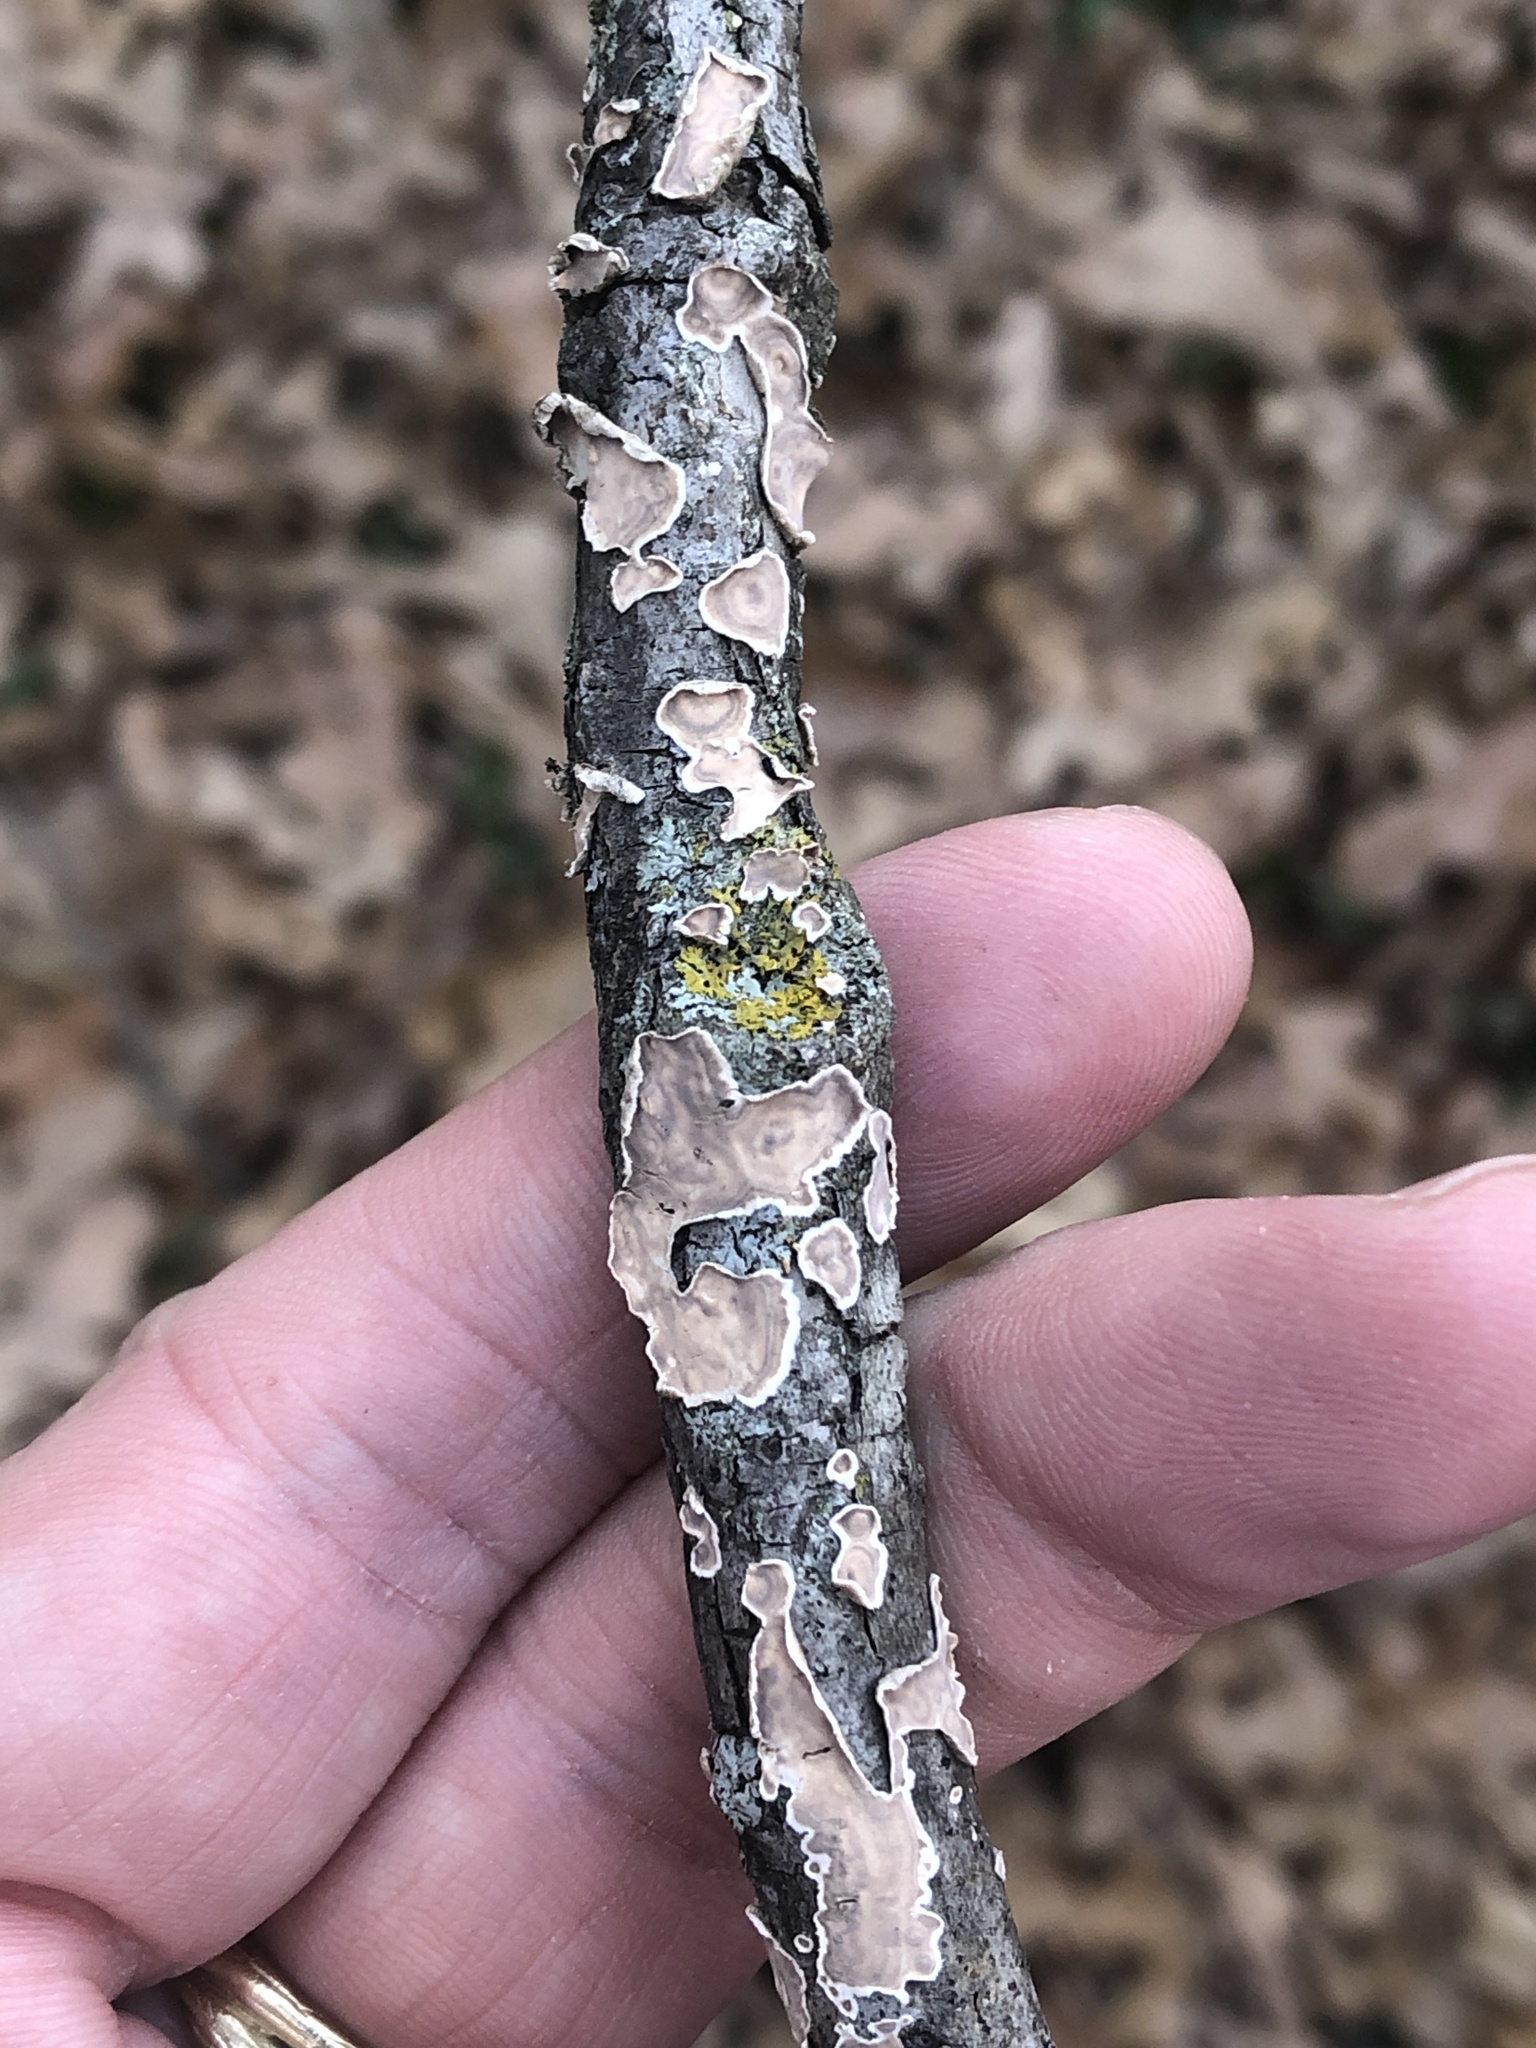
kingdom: Fungi
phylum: Basidiomycota
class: Agaricomycetes
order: Russulales
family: Peniophoraceae
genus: Peniophora
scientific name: Peniophora albobadia
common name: Giraffe spots
